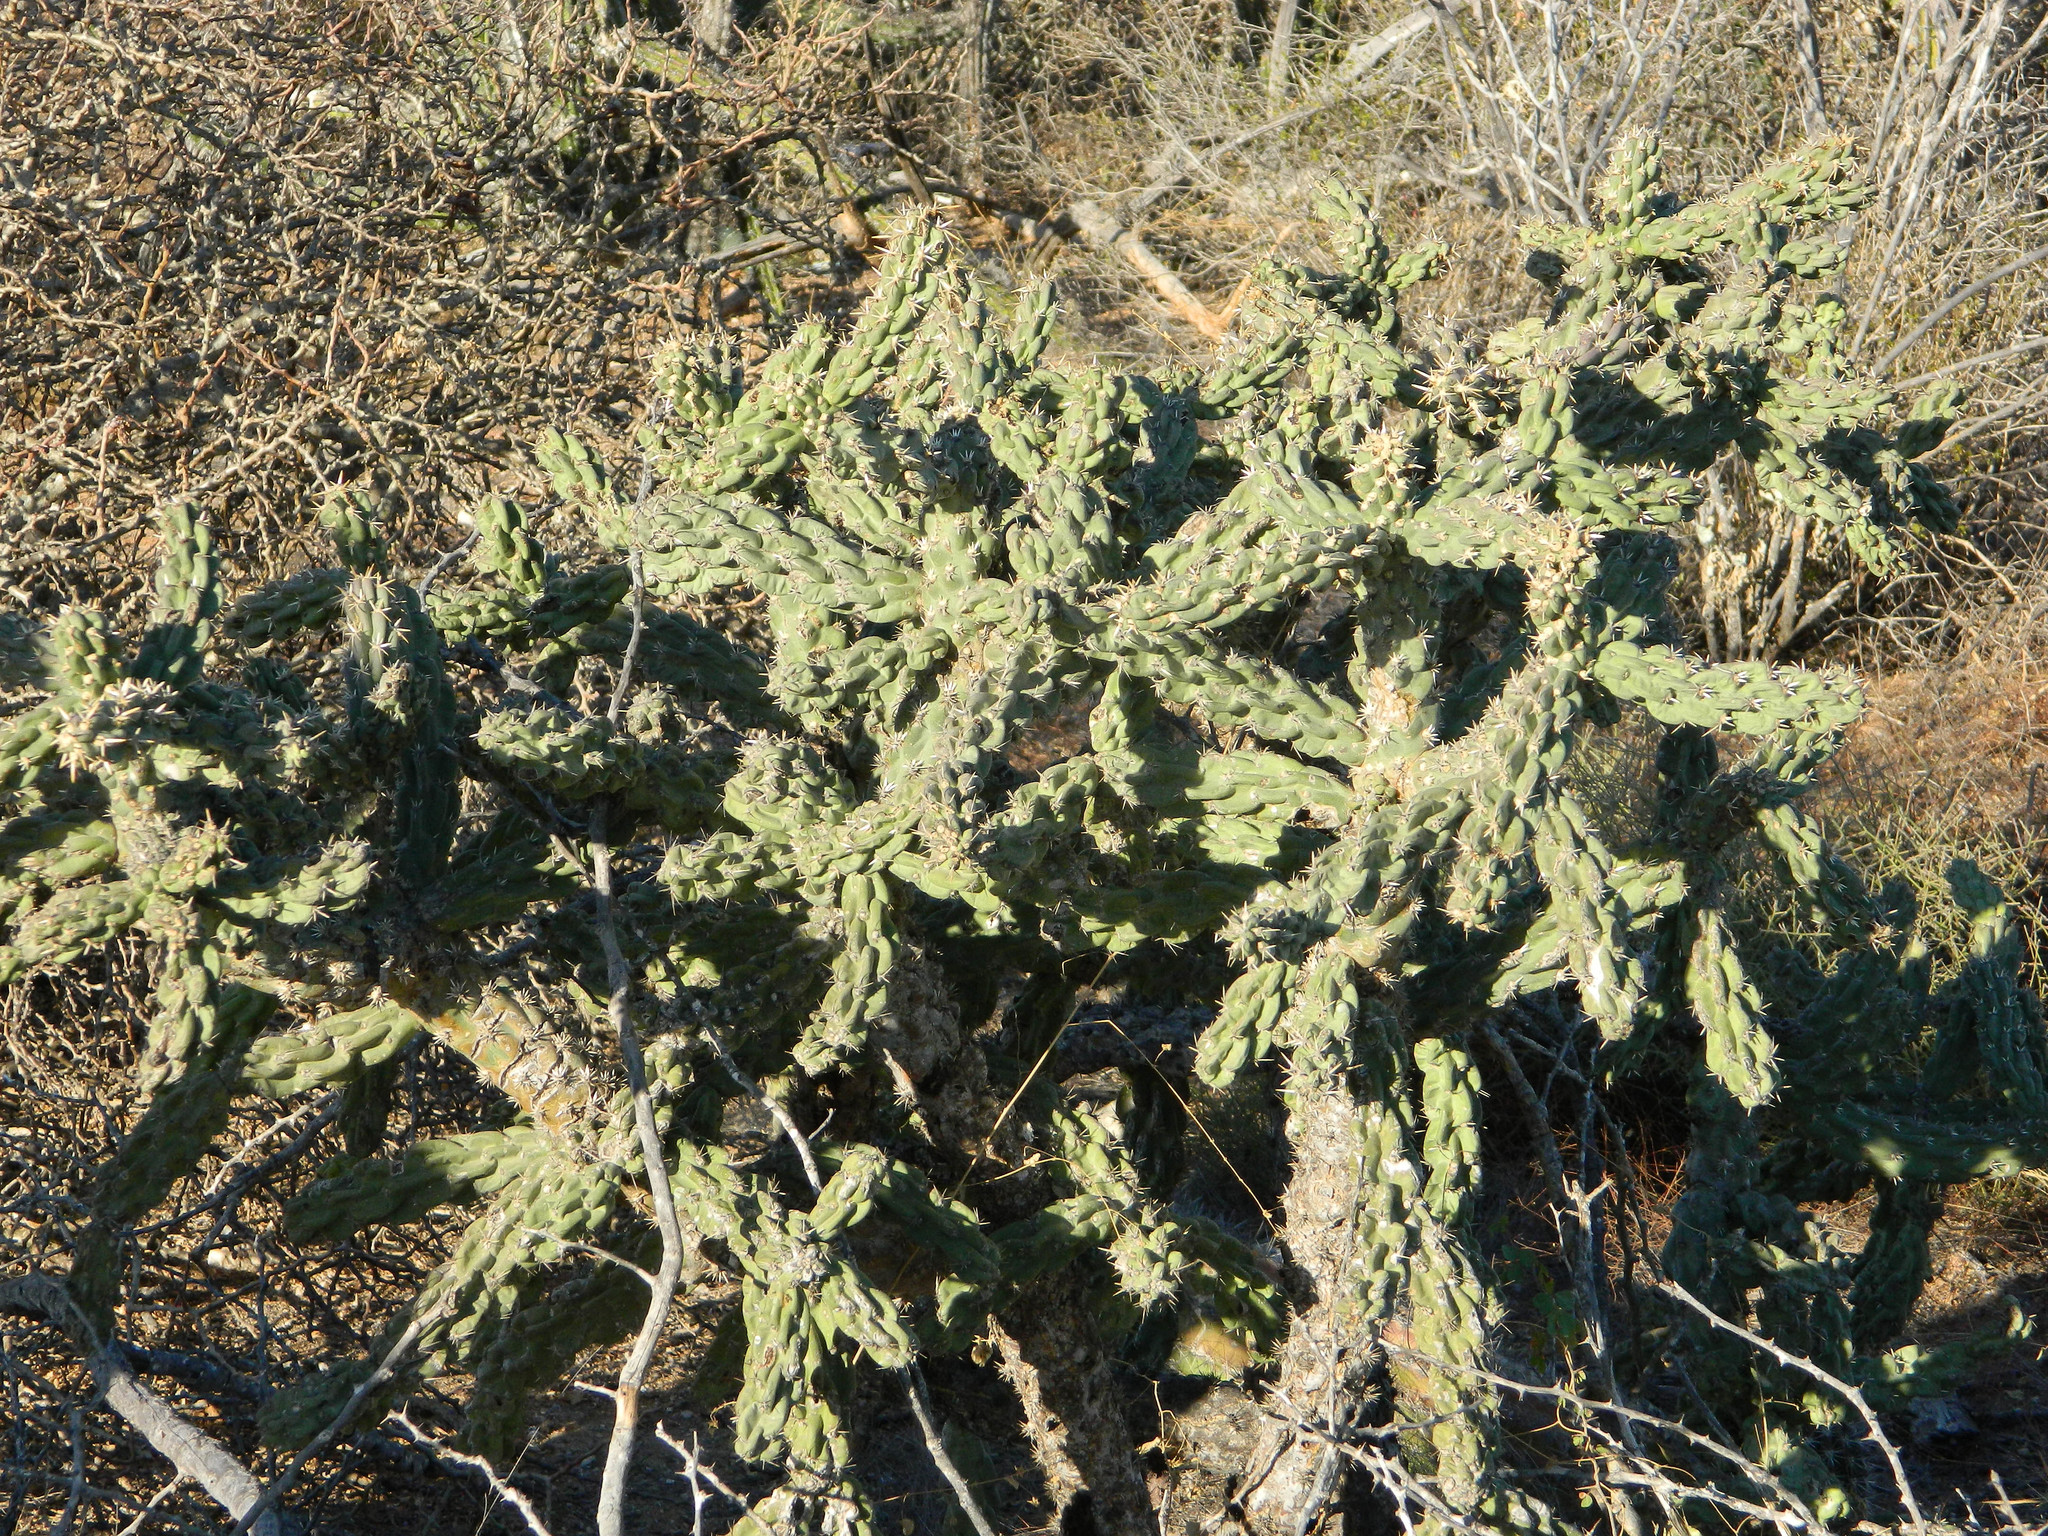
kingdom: Plantae
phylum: Tracheophyta
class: Magnoliopsida
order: Caryophyllales
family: Cactaceae
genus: Cylindropuntia
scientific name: Cylindropuntia cholla
